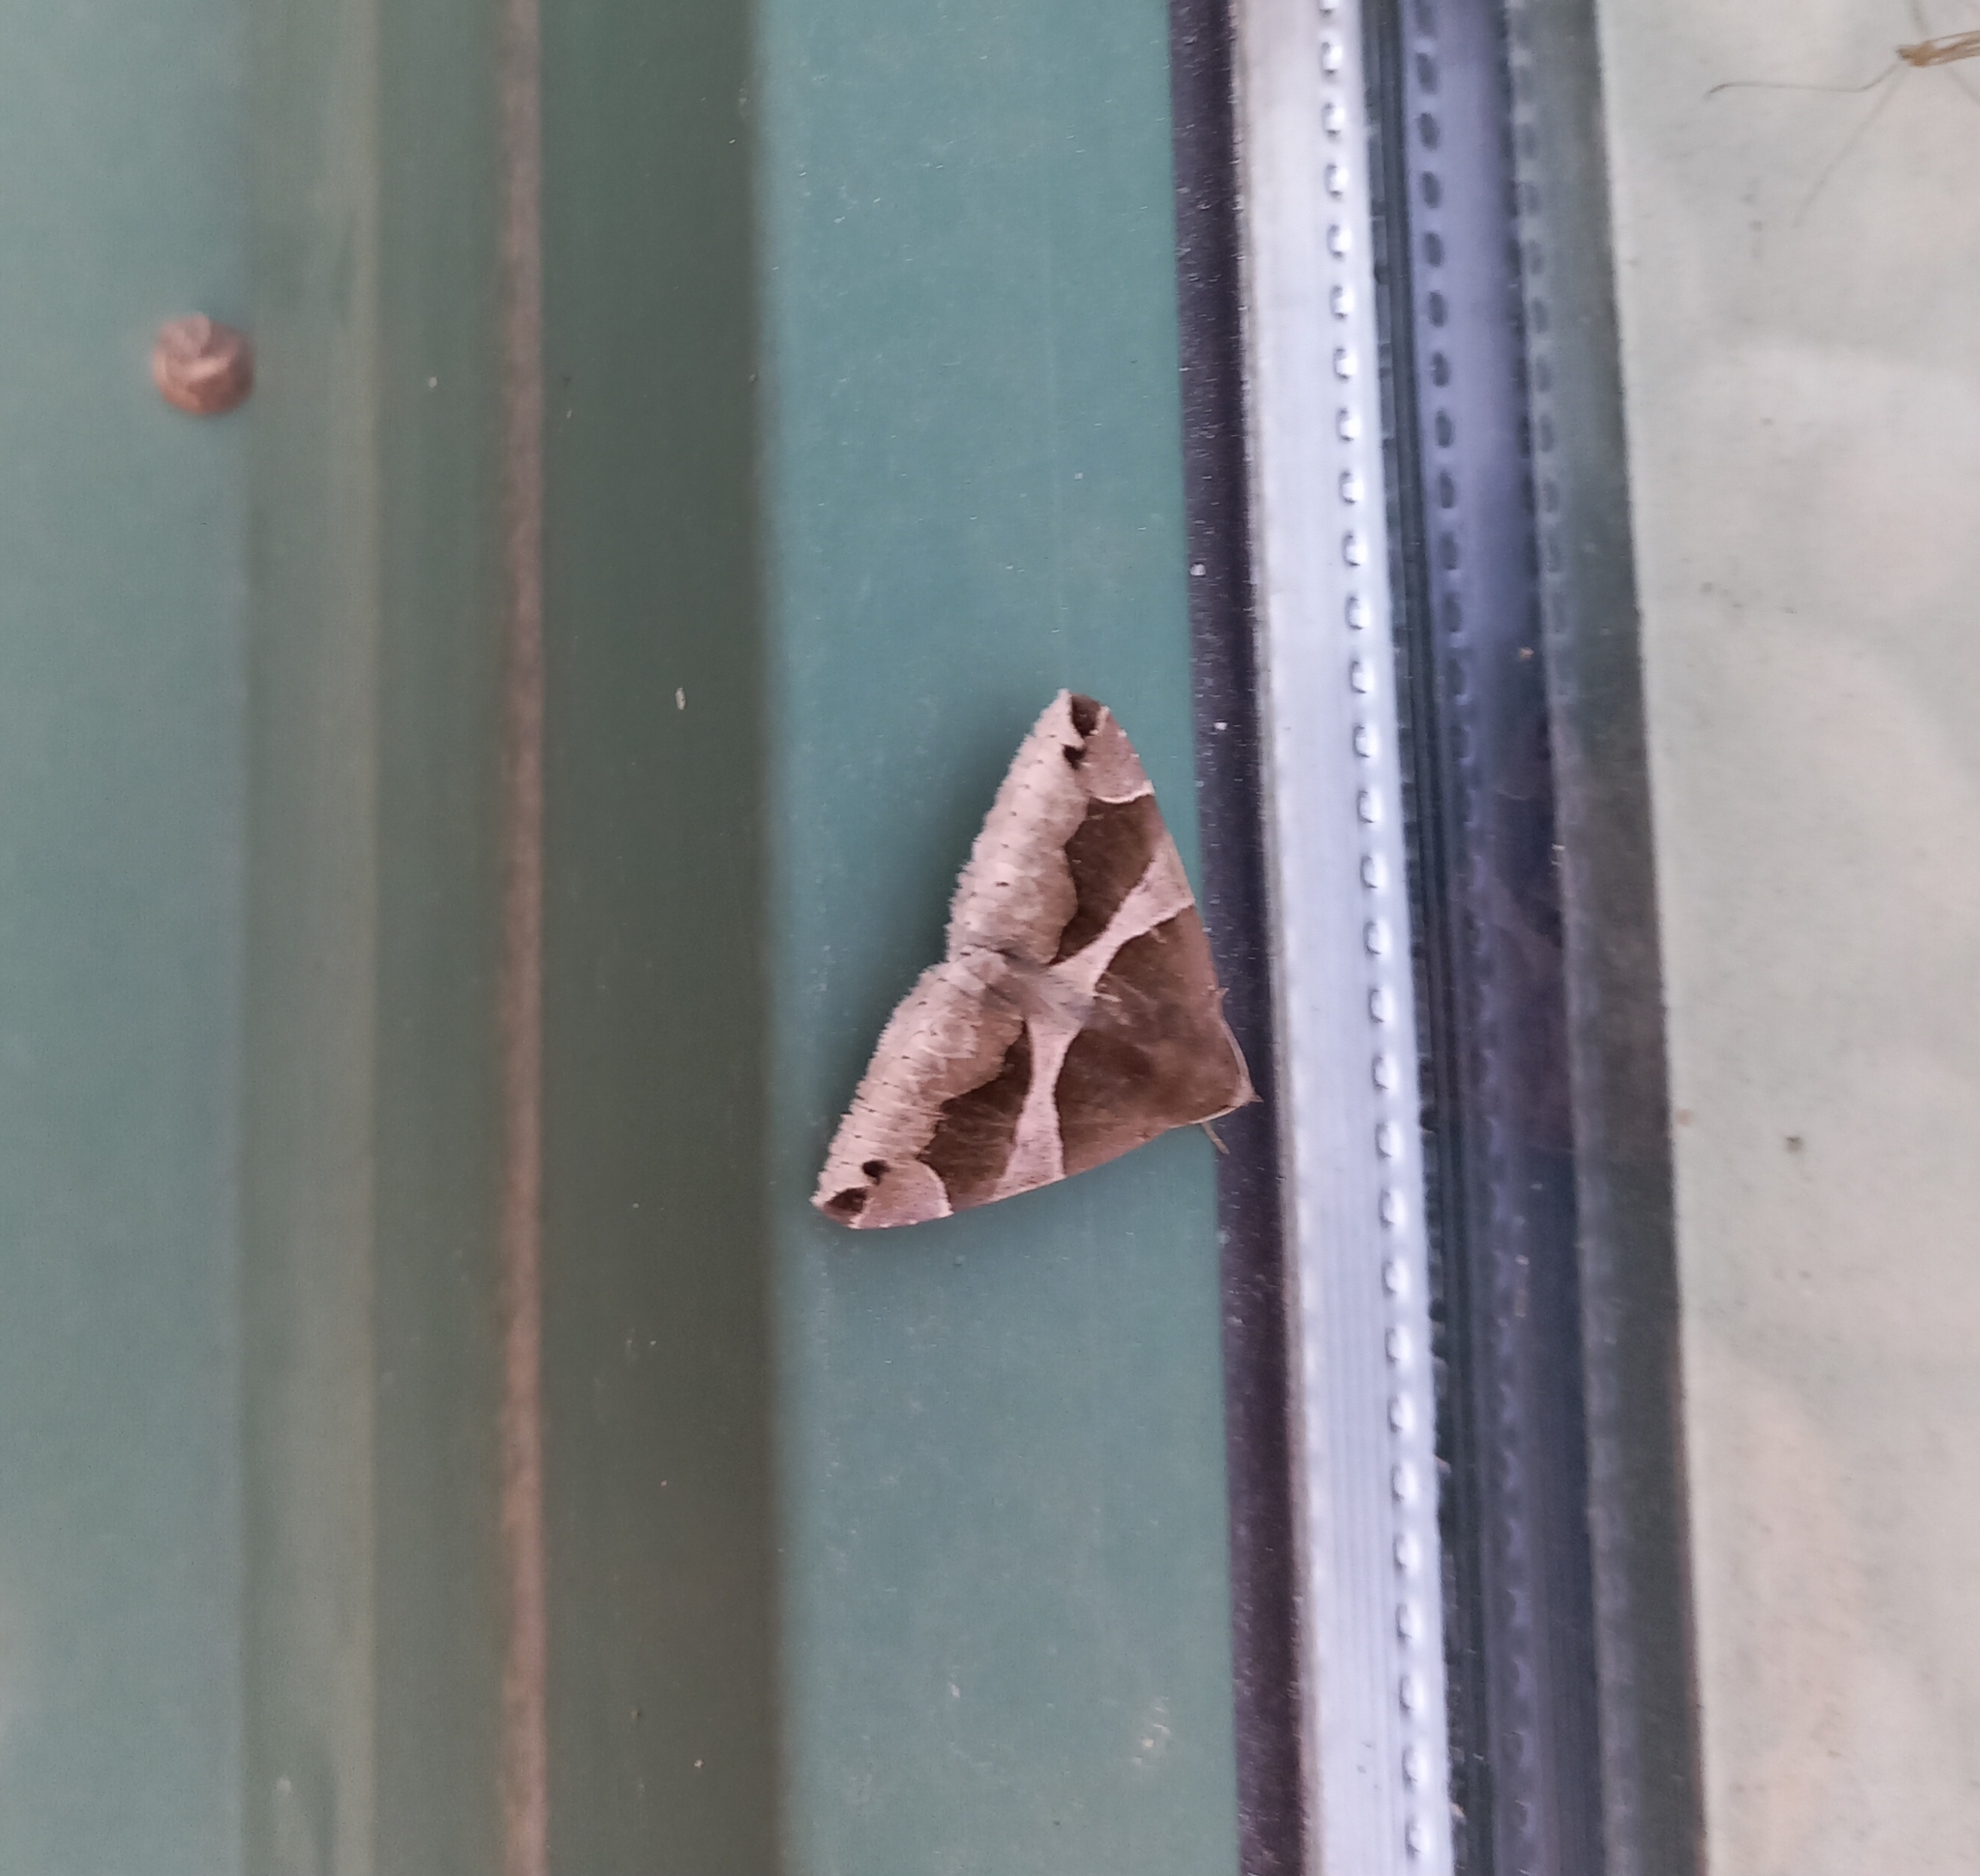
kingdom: Animalia
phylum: Arthropoda
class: Insecta
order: Lepidoptera
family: Erebidae
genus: Dysgonia
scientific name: Dysgonia algira
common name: Passenger
